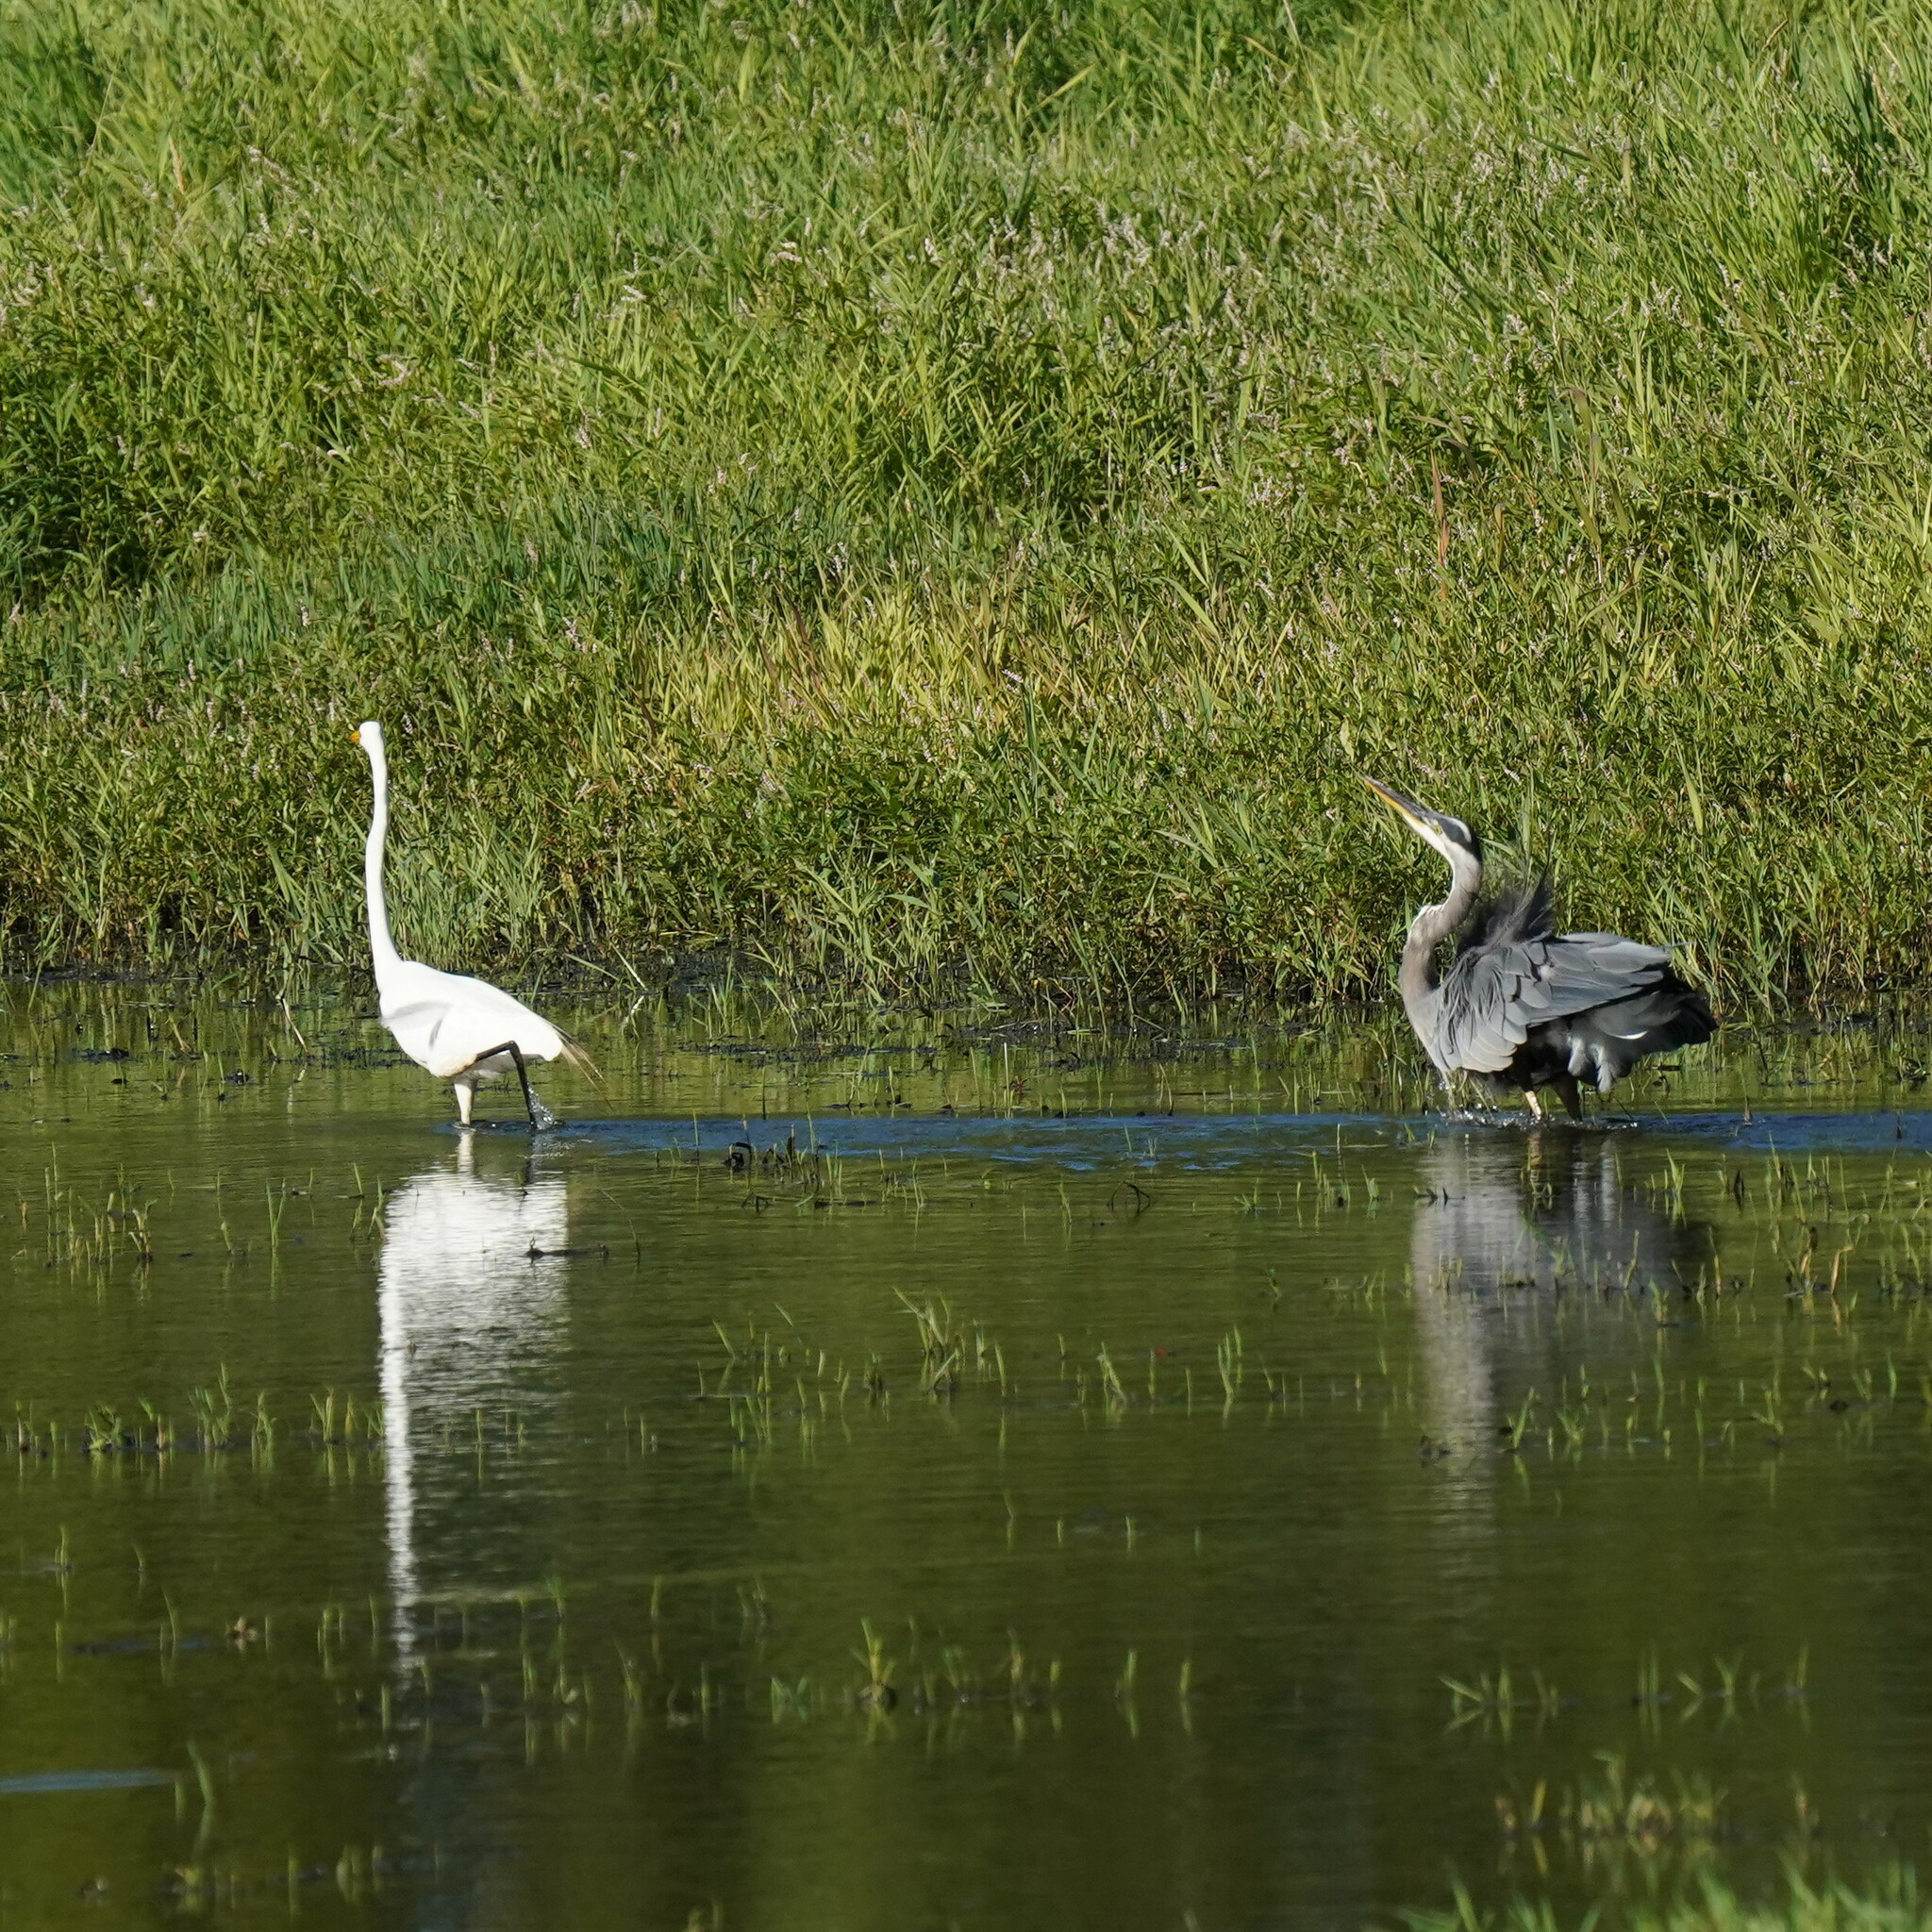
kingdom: Animalia
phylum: Chordata
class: Aves
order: Pelecaniformes
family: Ardeidae
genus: Ardea
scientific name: Ardea herodias
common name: Great blue heron
